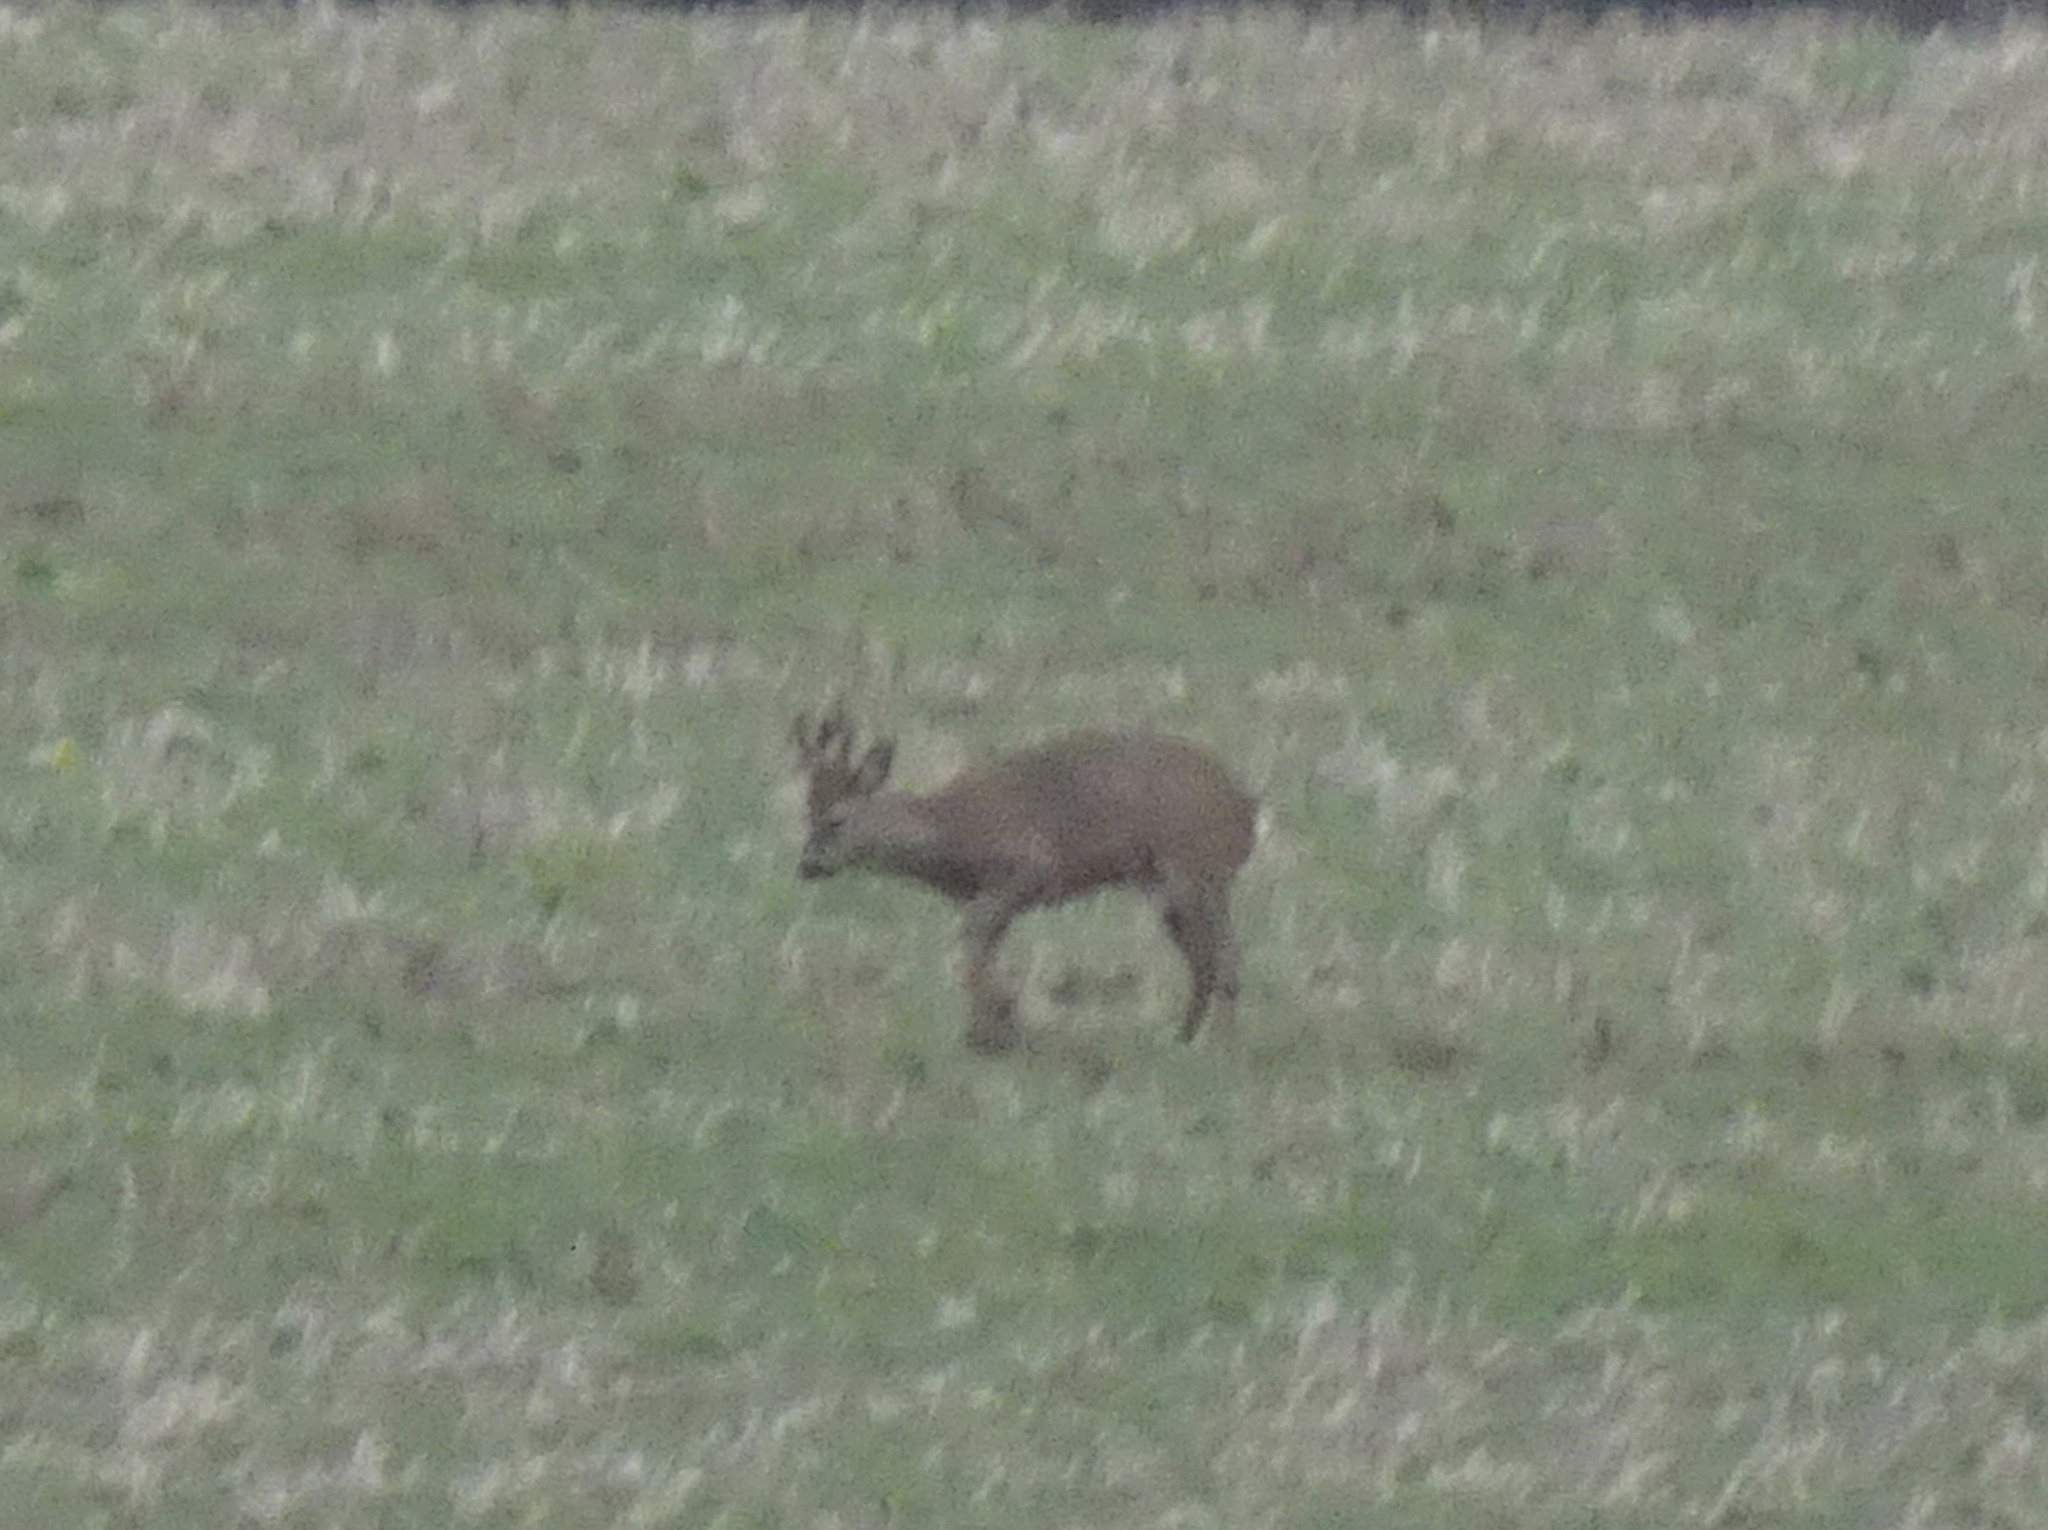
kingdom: Animalia
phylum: Chordata
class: Mammalia
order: Artiodactyla
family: Cervidae
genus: Capreolus
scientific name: Capreolus capreolus
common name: Western roe deer
